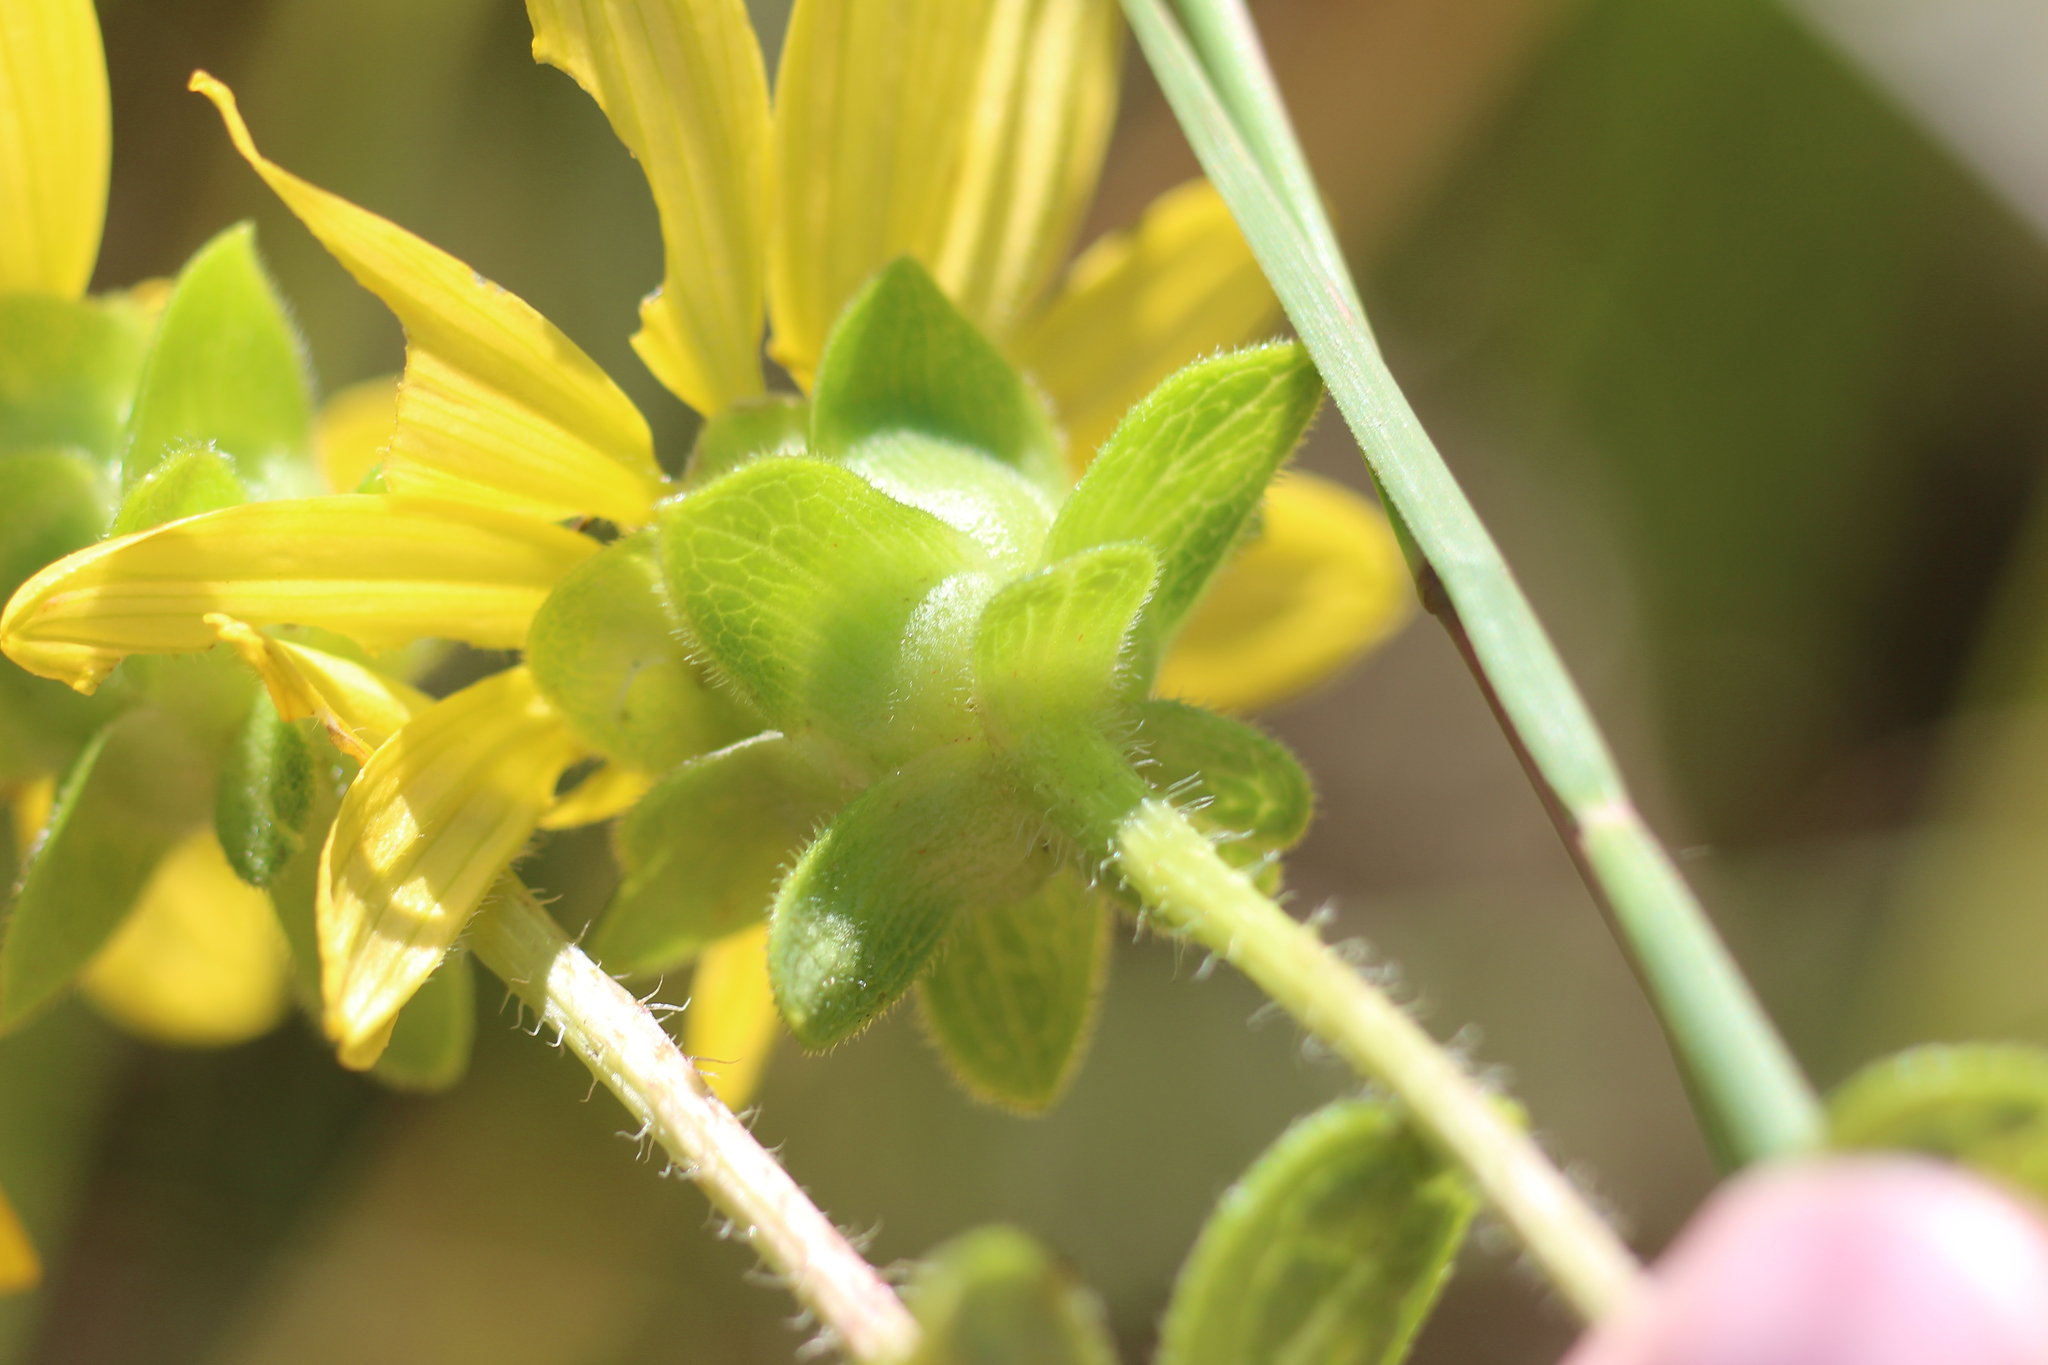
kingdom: Plantae
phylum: Tracheophyta
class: Magnoliopsida
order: Asterales
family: Asteraceae
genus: Silphium
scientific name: Silphium asteriscus
